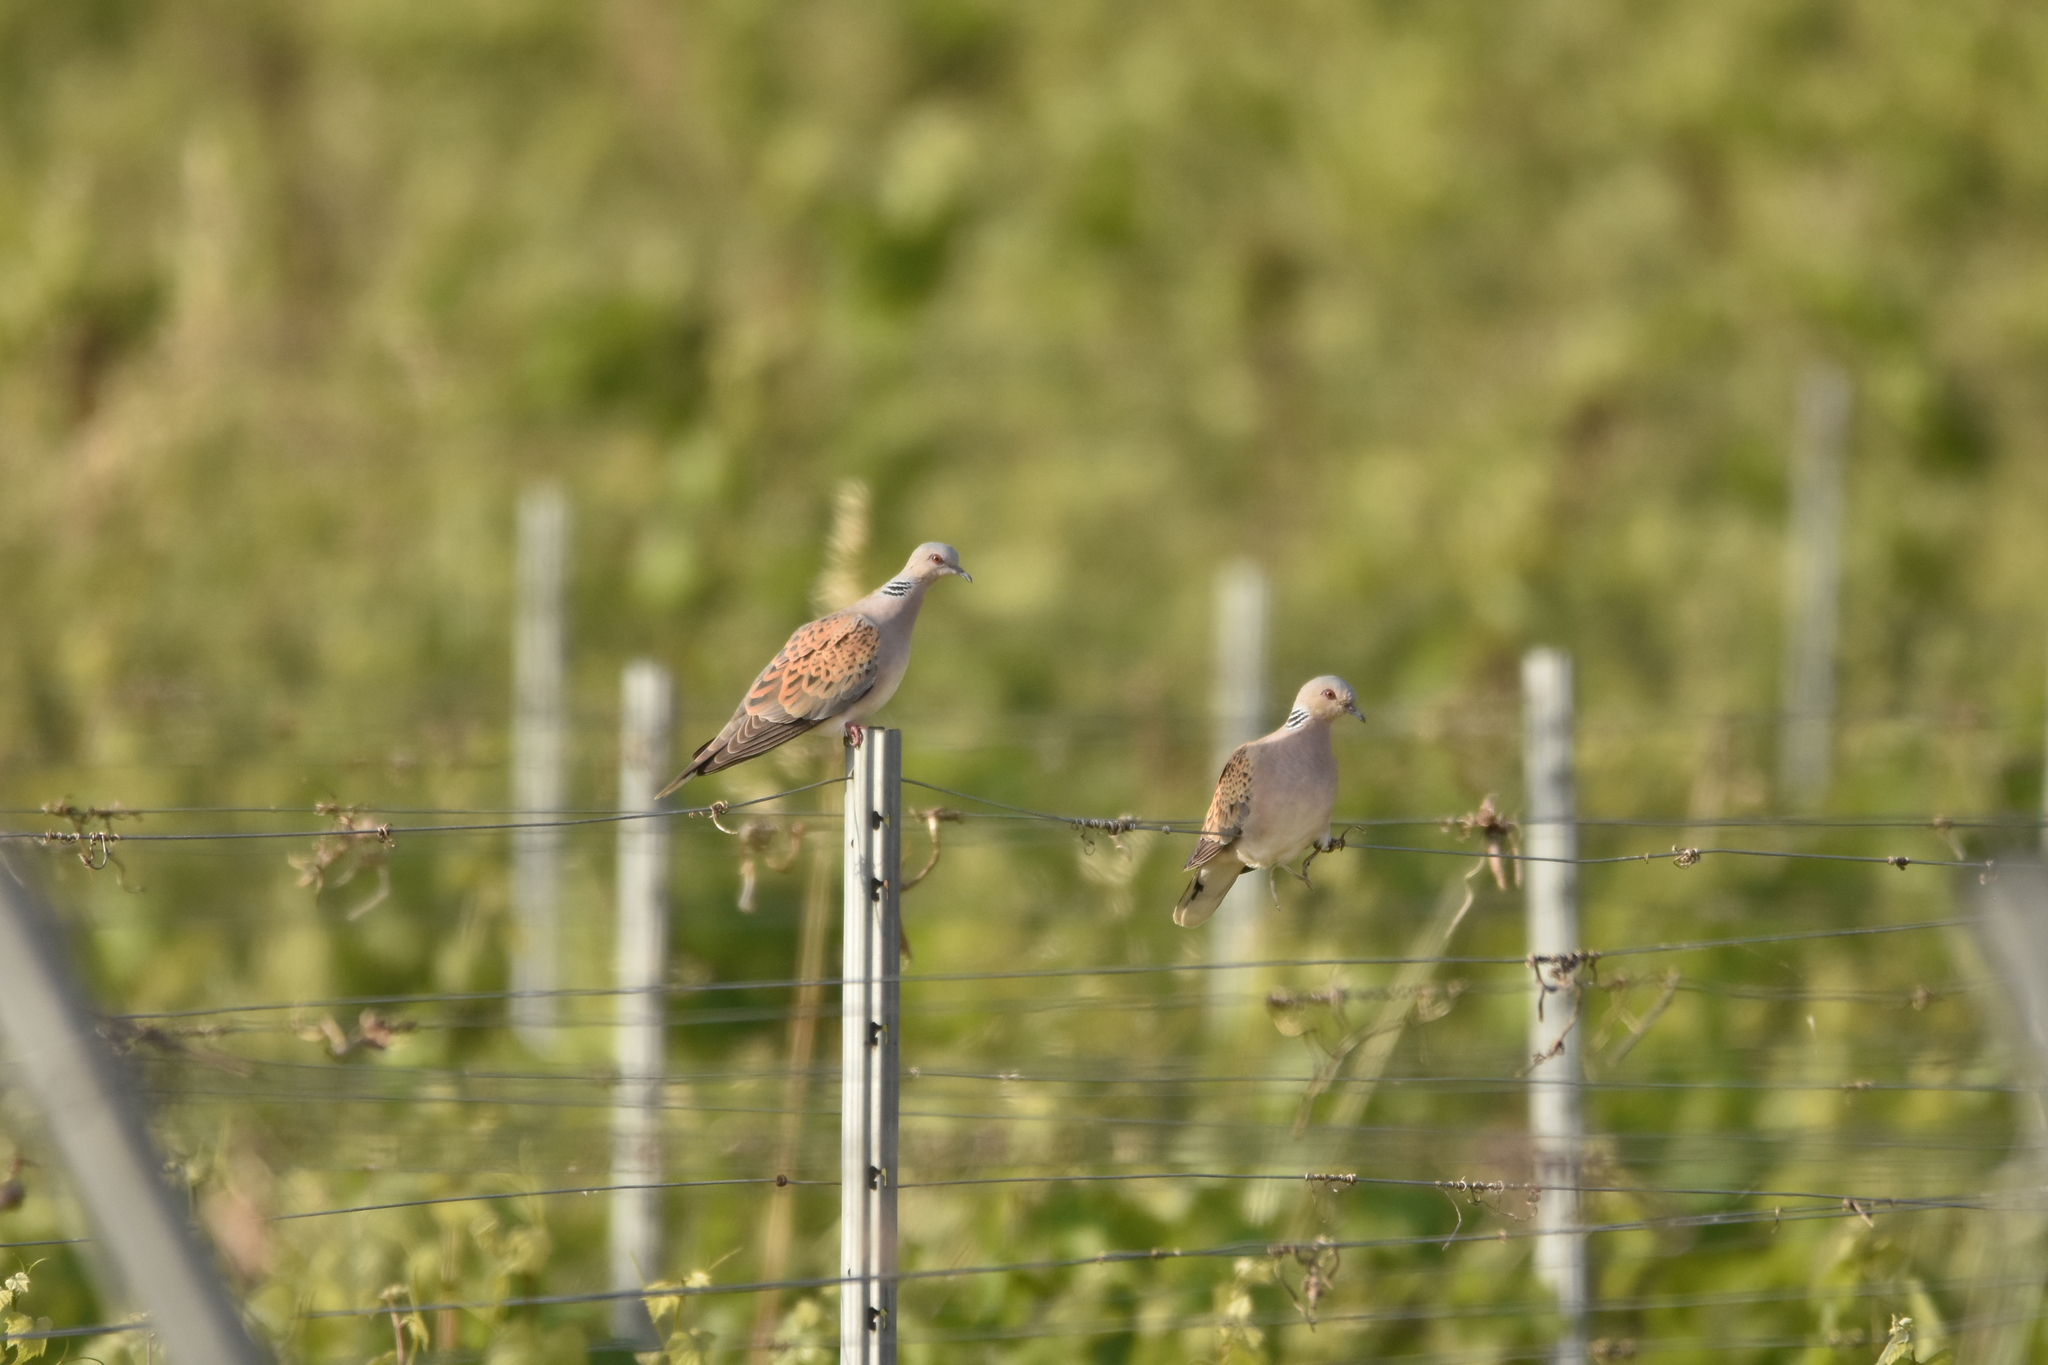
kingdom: Animalia
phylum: Chordata
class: Aves
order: Columbiformes
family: Columbidae
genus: Streptopelia
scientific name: Streptopelia turtur
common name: European turtle dove
